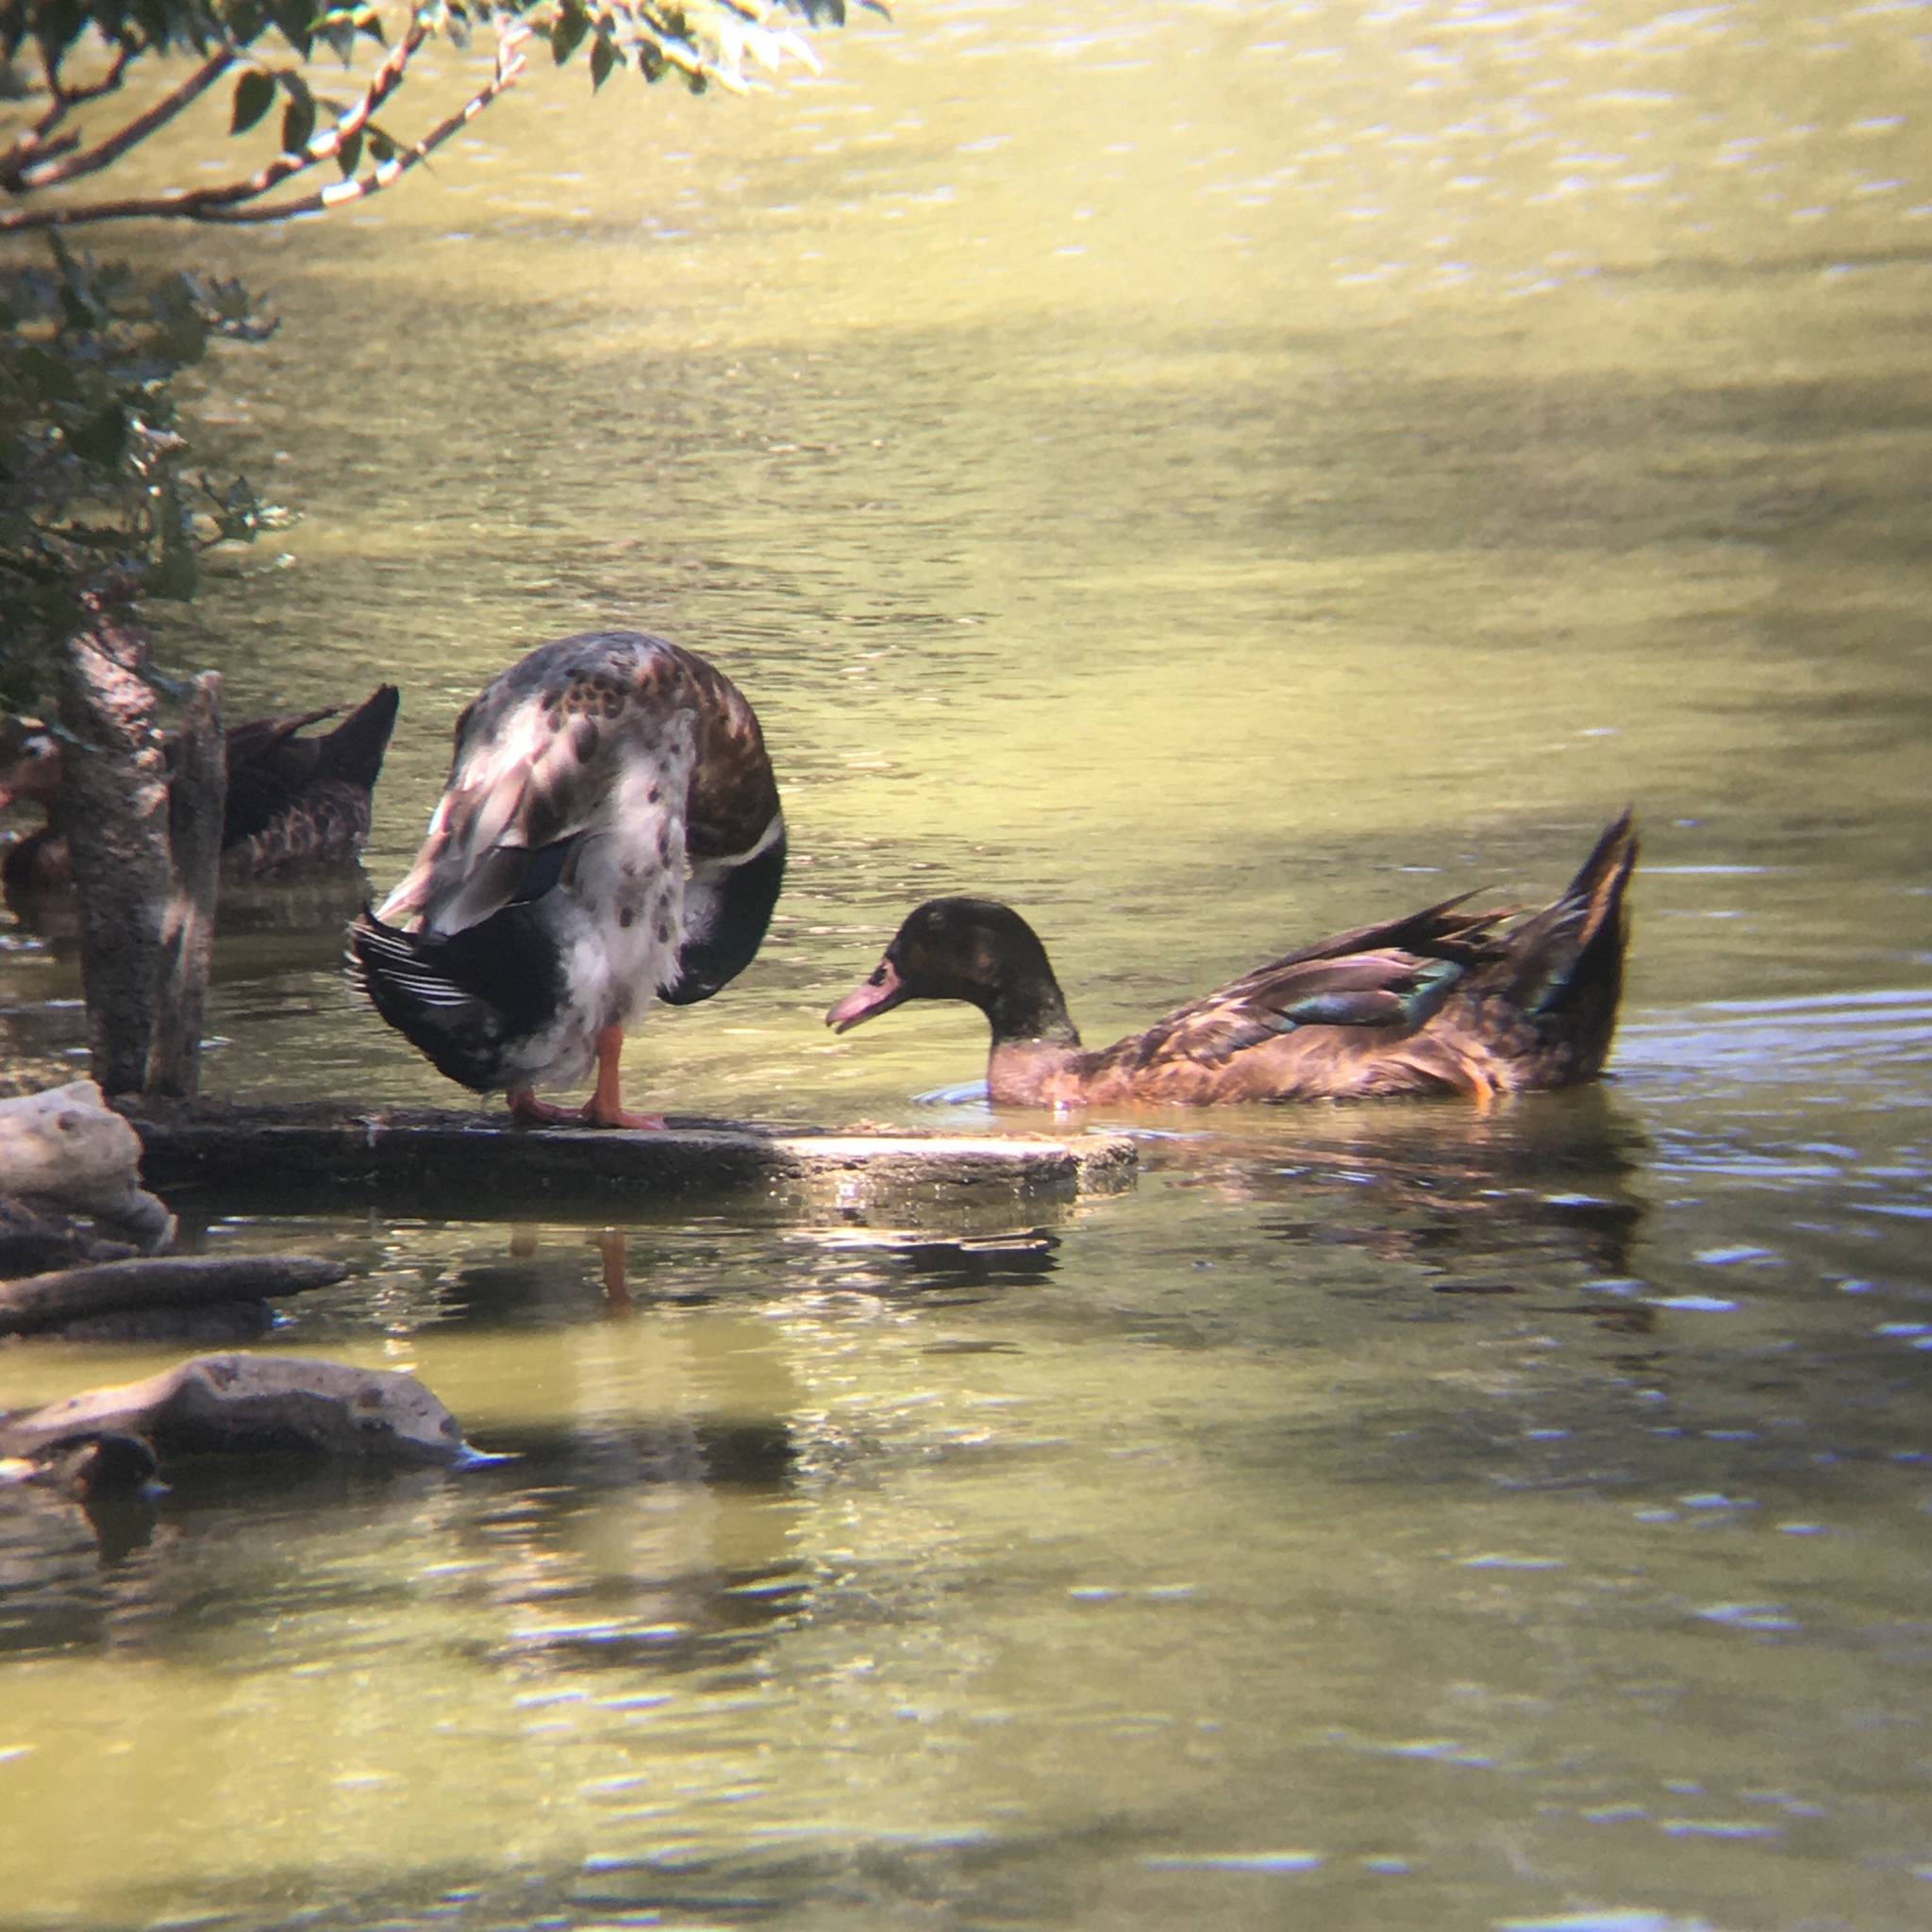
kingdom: Animalia
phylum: Chordata
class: Aves
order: Anseriformes
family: Anatidae
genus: Anas
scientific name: Anas platyrhynchos
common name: Mallard
